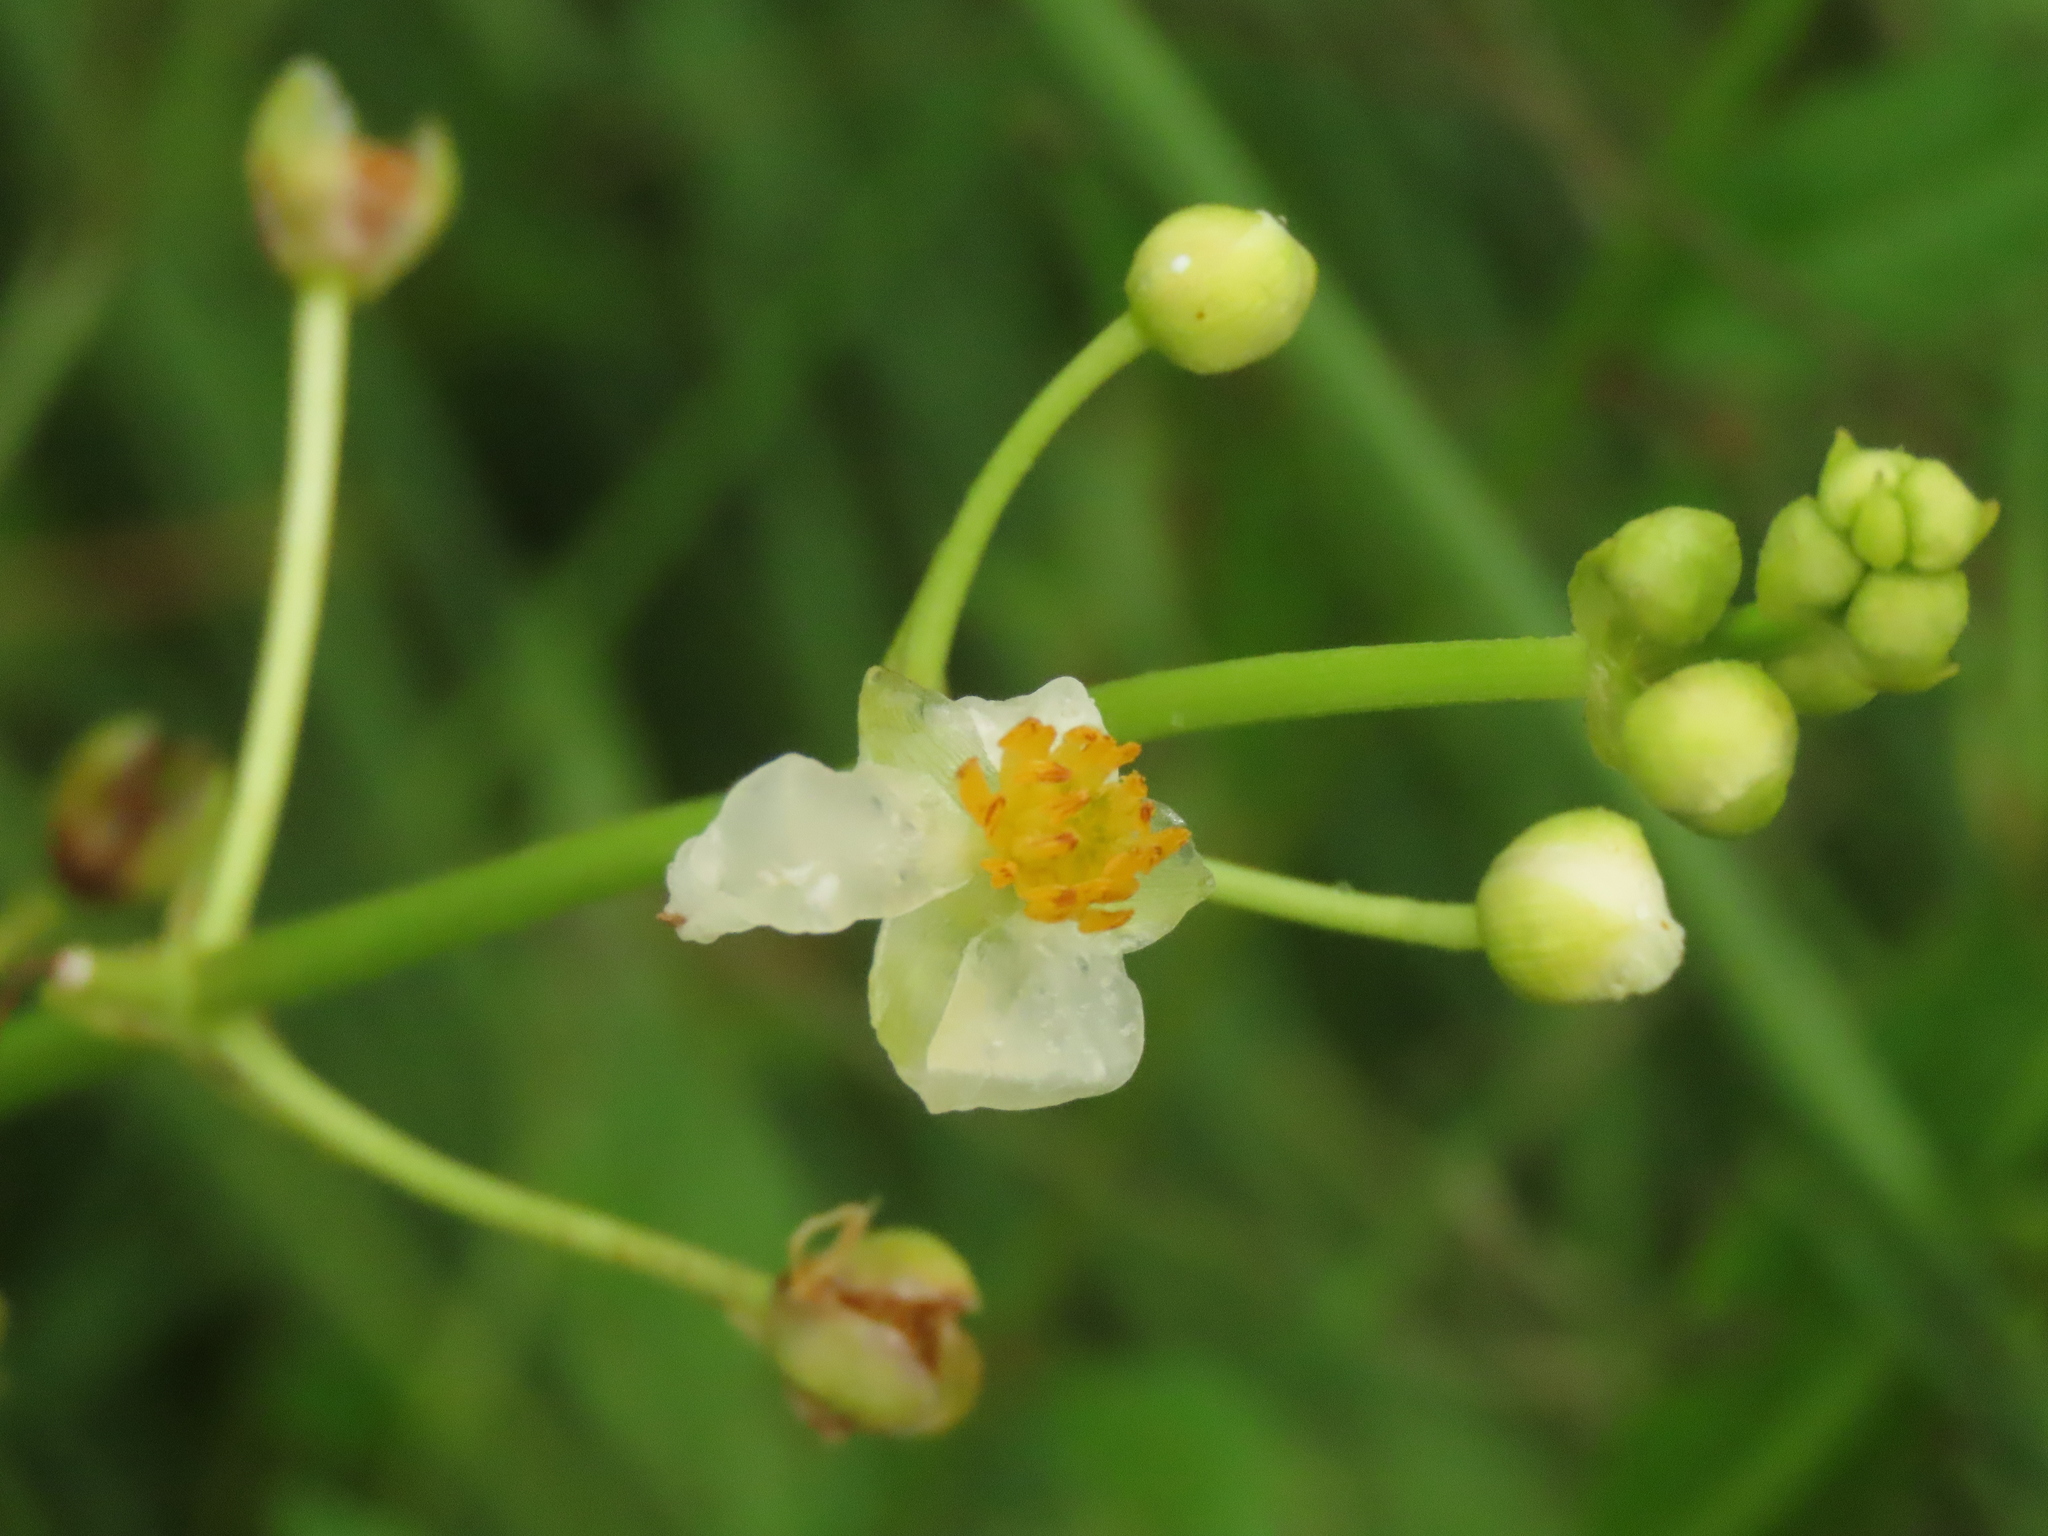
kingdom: Plantae
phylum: Tracheophyta
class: Liliopsida
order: Alismatales
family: Alismataceae
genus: Sagittaria
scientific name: Sagittaria trifolia
